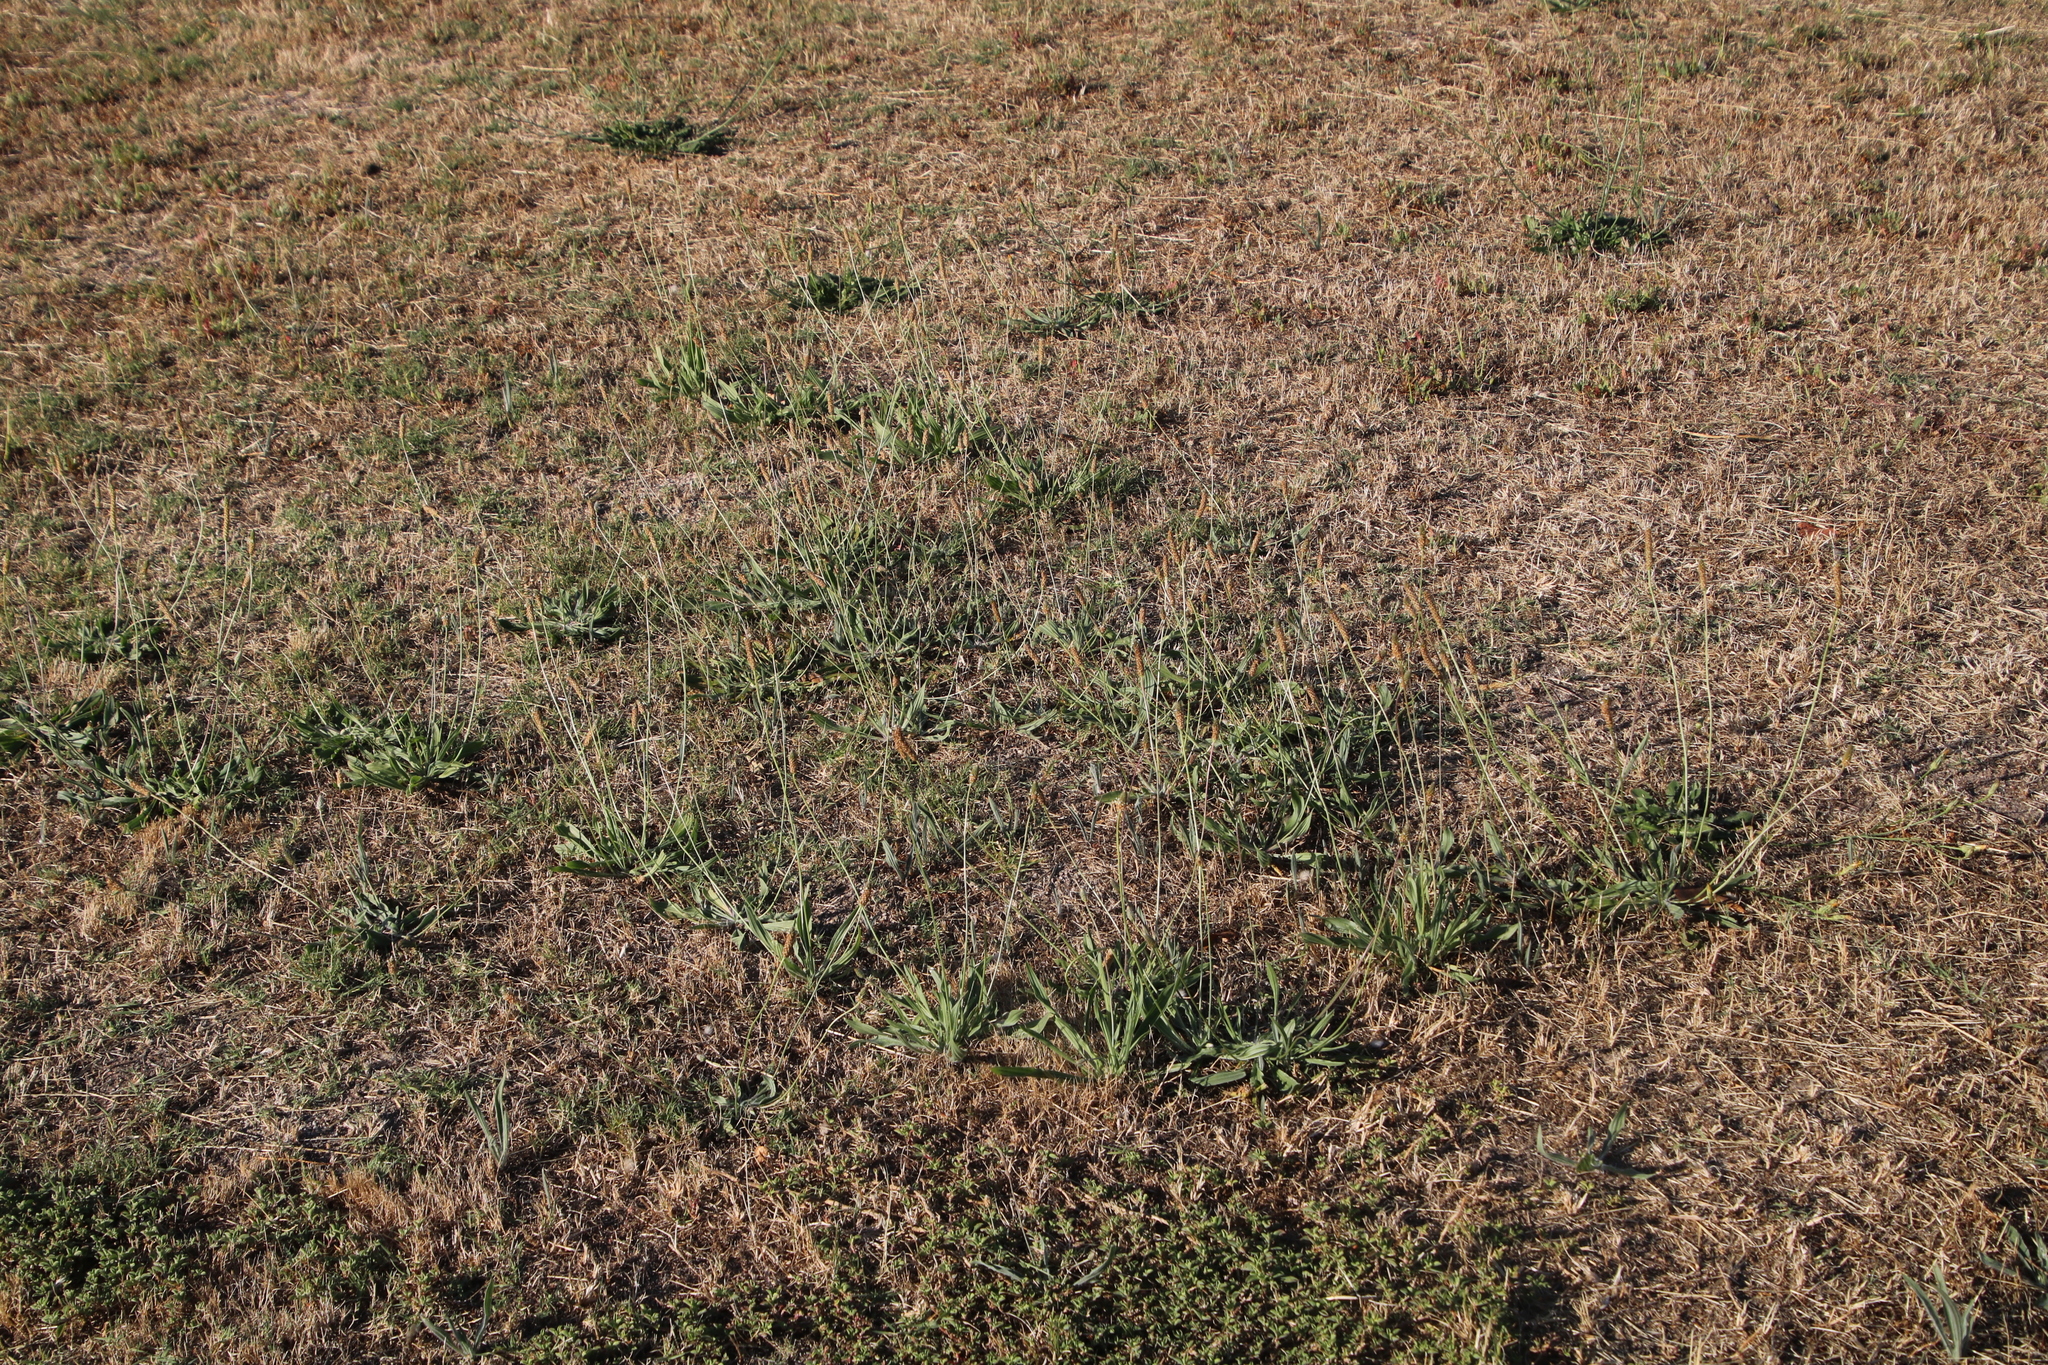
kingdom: Plantae
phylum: Tracheophyta
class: Magnoliopsida
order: Lamiales
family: Plantaginaceae
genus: Plantago
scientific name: Plantago lanceolata
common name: Ribwort plantain
